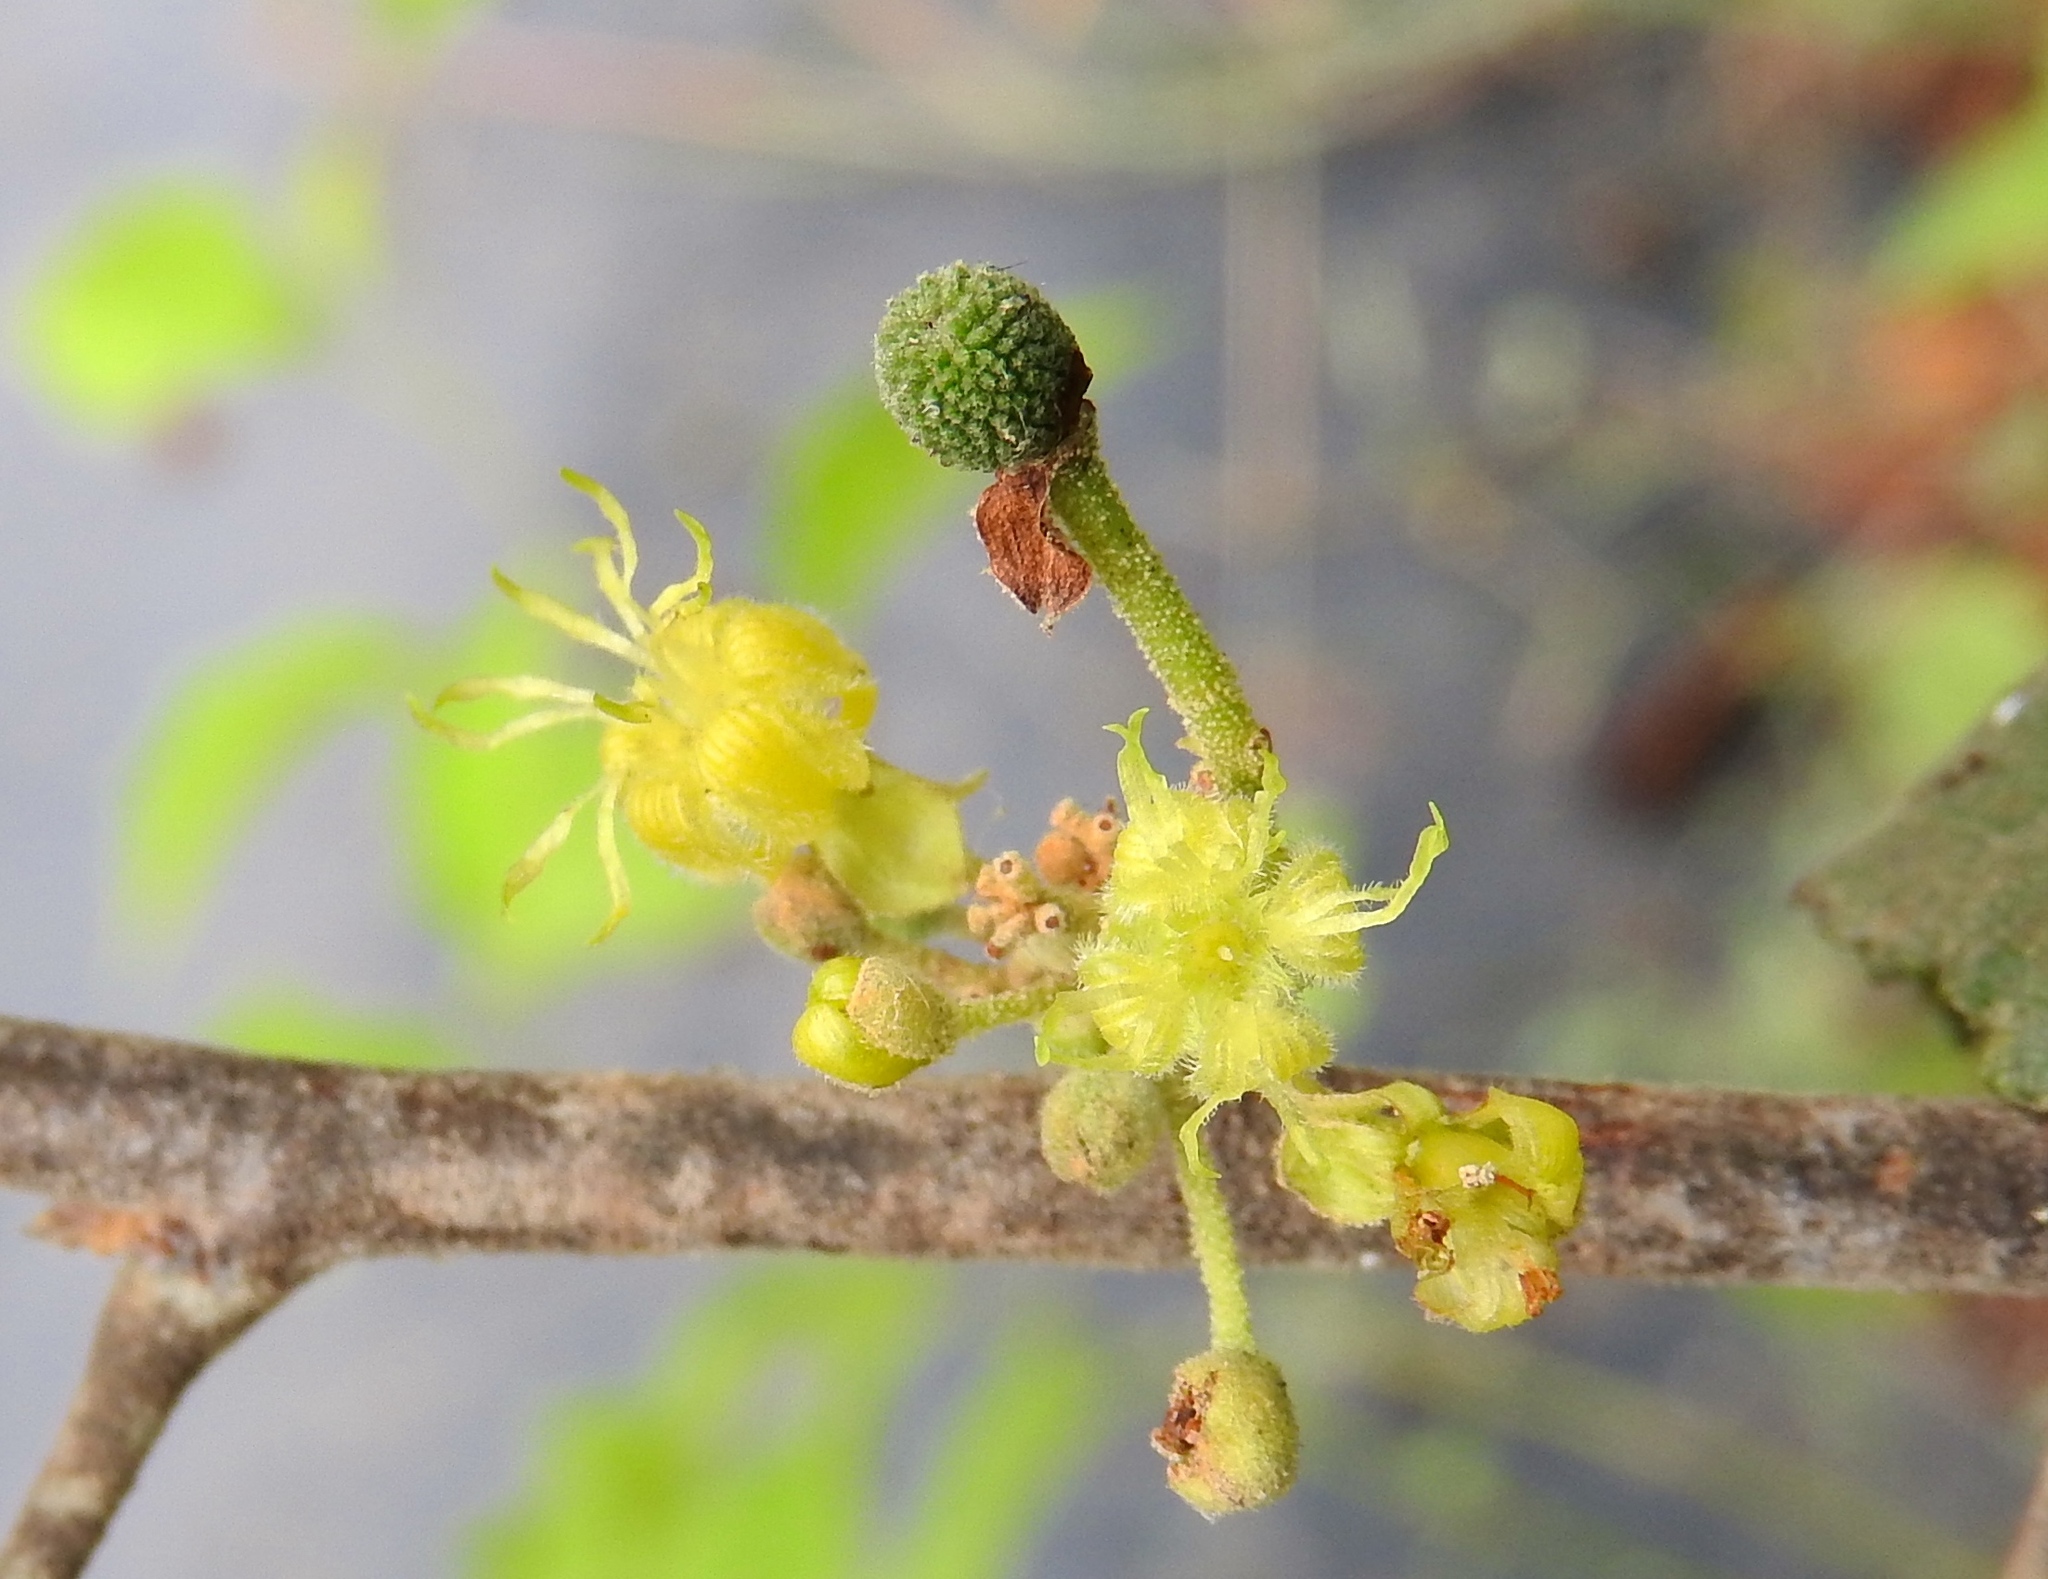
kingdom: Plantae
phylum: Tracheophyta
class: Magnoliopsida
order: Malvales
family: Malvaceae
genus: Guazuma
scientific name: Guazuma ulmifolia
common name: Bastard-cedar
